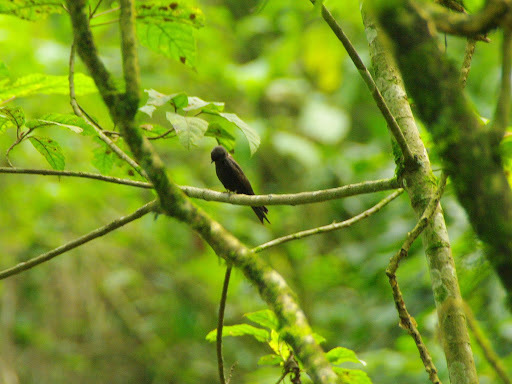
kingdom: Animalia
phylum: Chordata
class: Aves
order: Passeriformes
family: Hirundinidae
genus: Psalidoprocne
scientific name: Psalidoprocne pristoptera
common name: Black saw-wing
